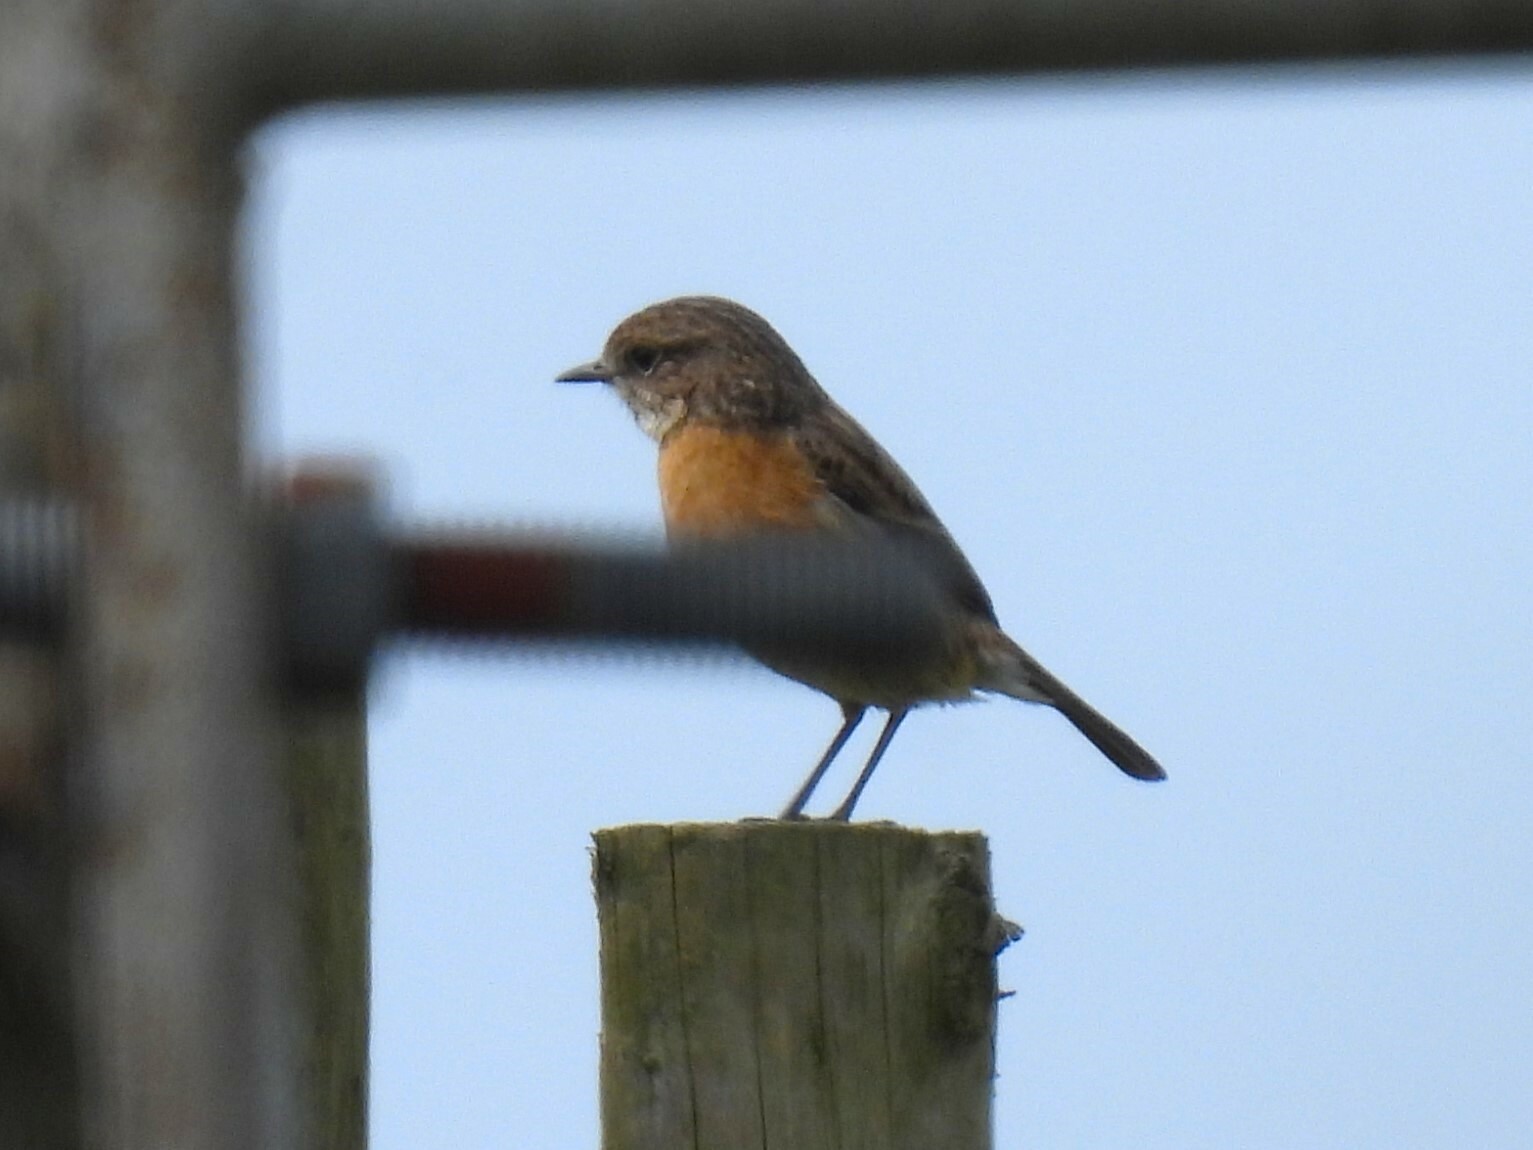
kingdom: Animalia
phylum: Chordata
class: Aves
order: Passeriformes
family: Muscicapidae
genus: Saxicola
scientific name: Saxicola rubicola
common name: European stonechat
